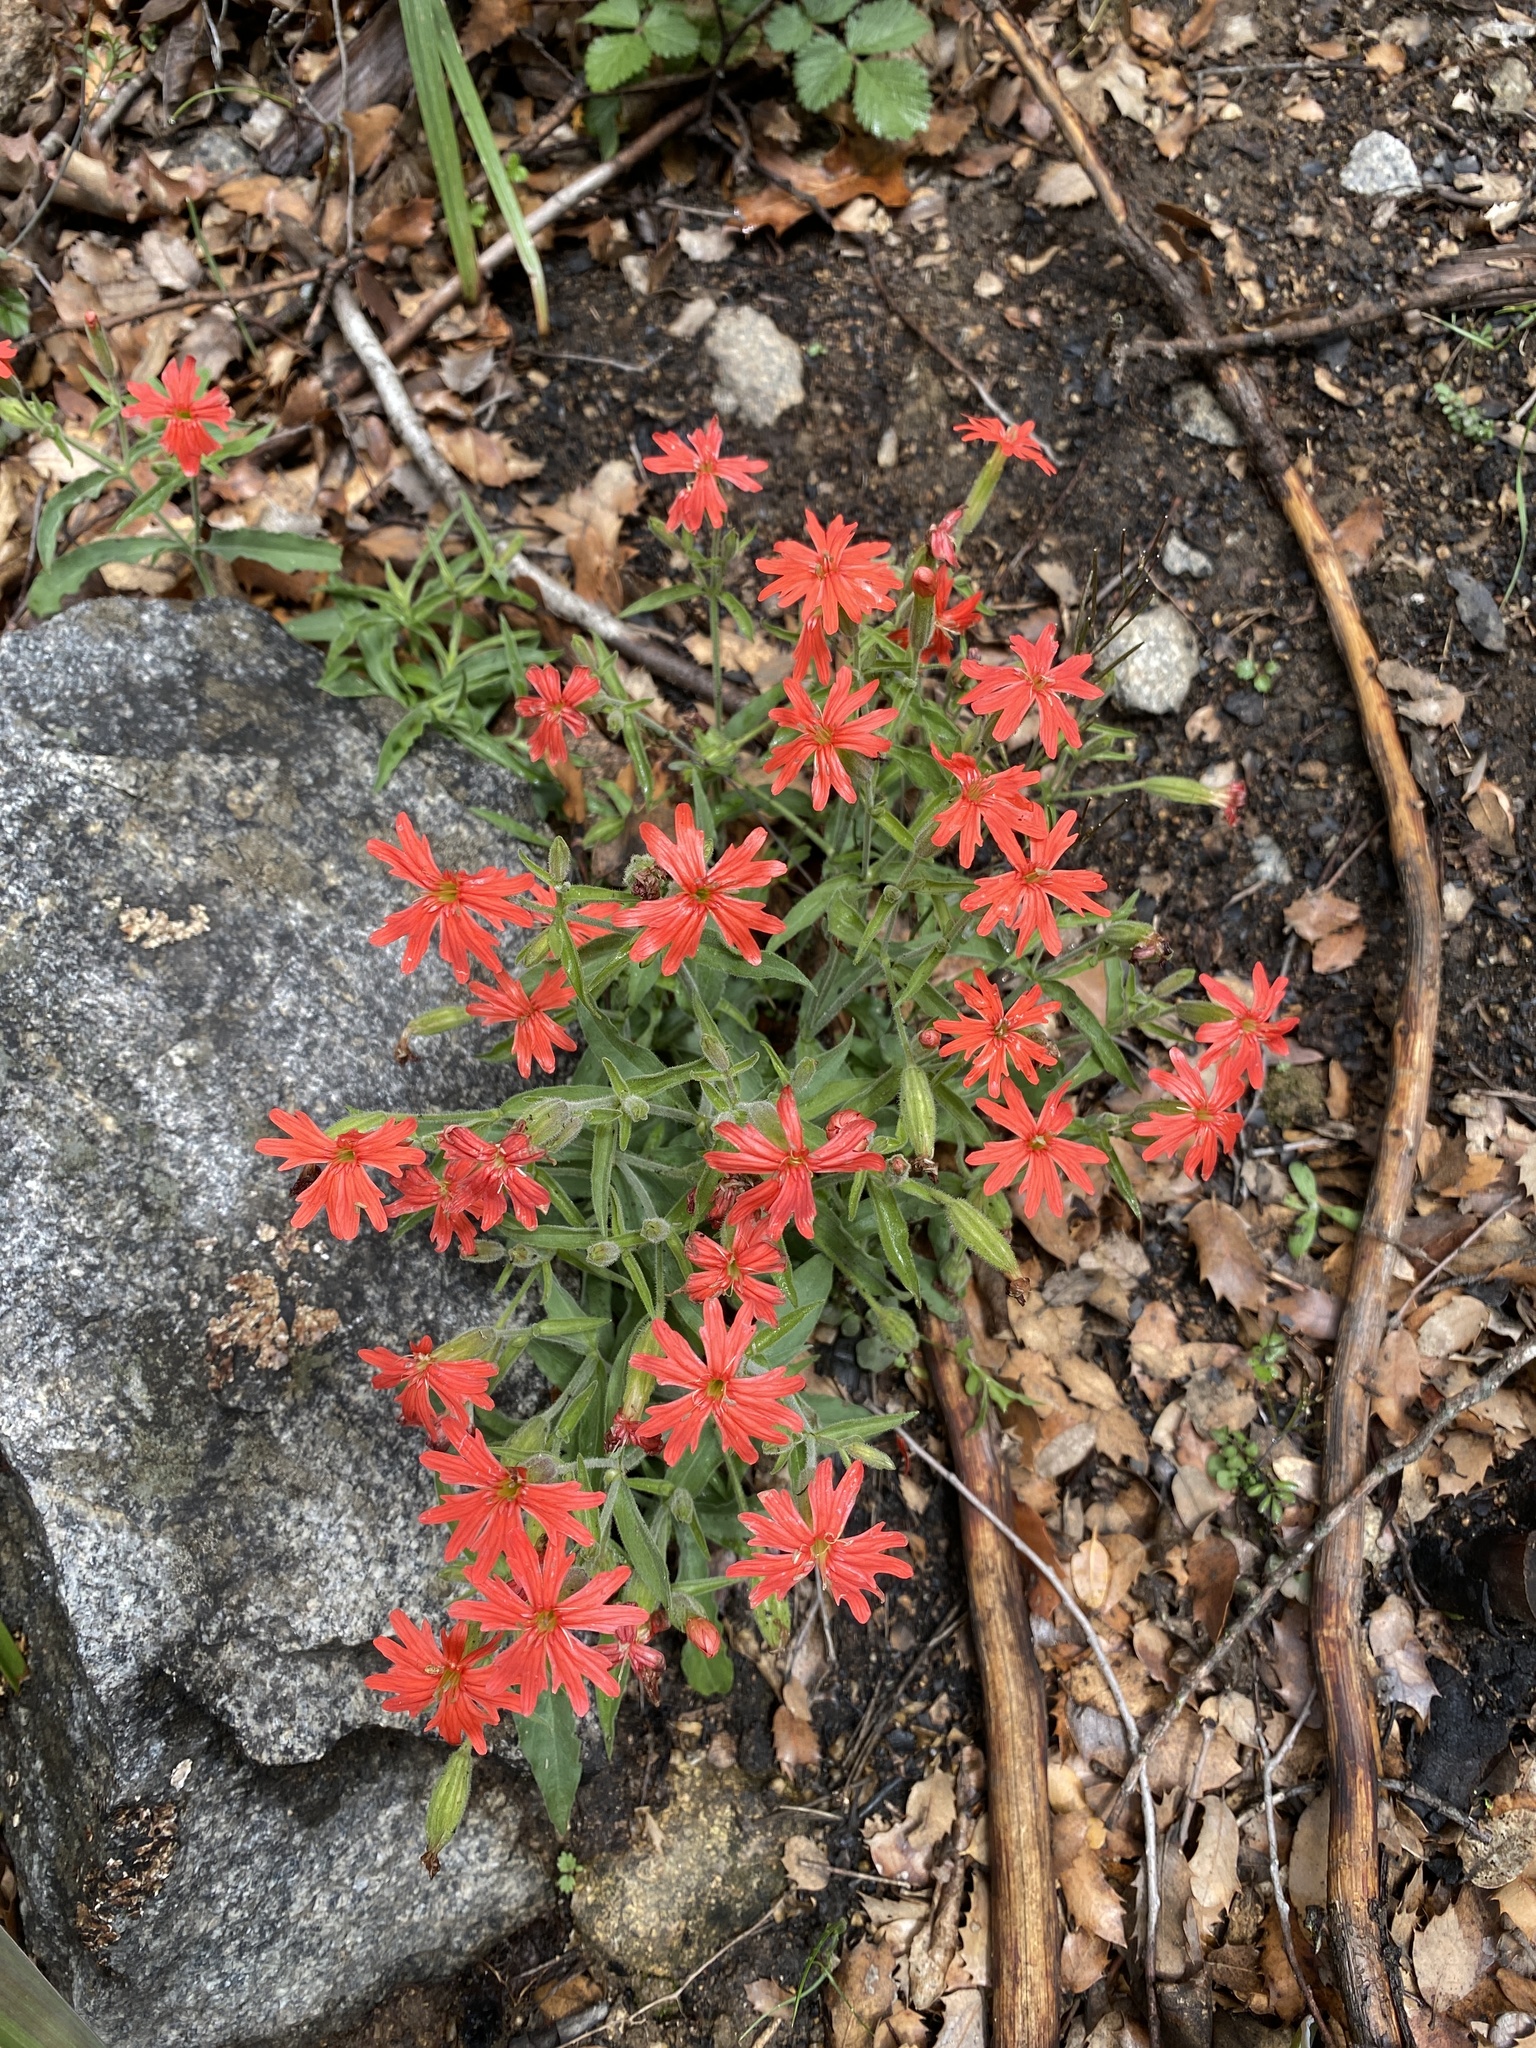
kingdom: Plantae
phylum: Tracheophyta
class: Magnoliopsida
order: Caryophyllales
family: Caryophyllaceae
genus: Silene
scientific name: Silene laciniata
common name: Indian-pink
